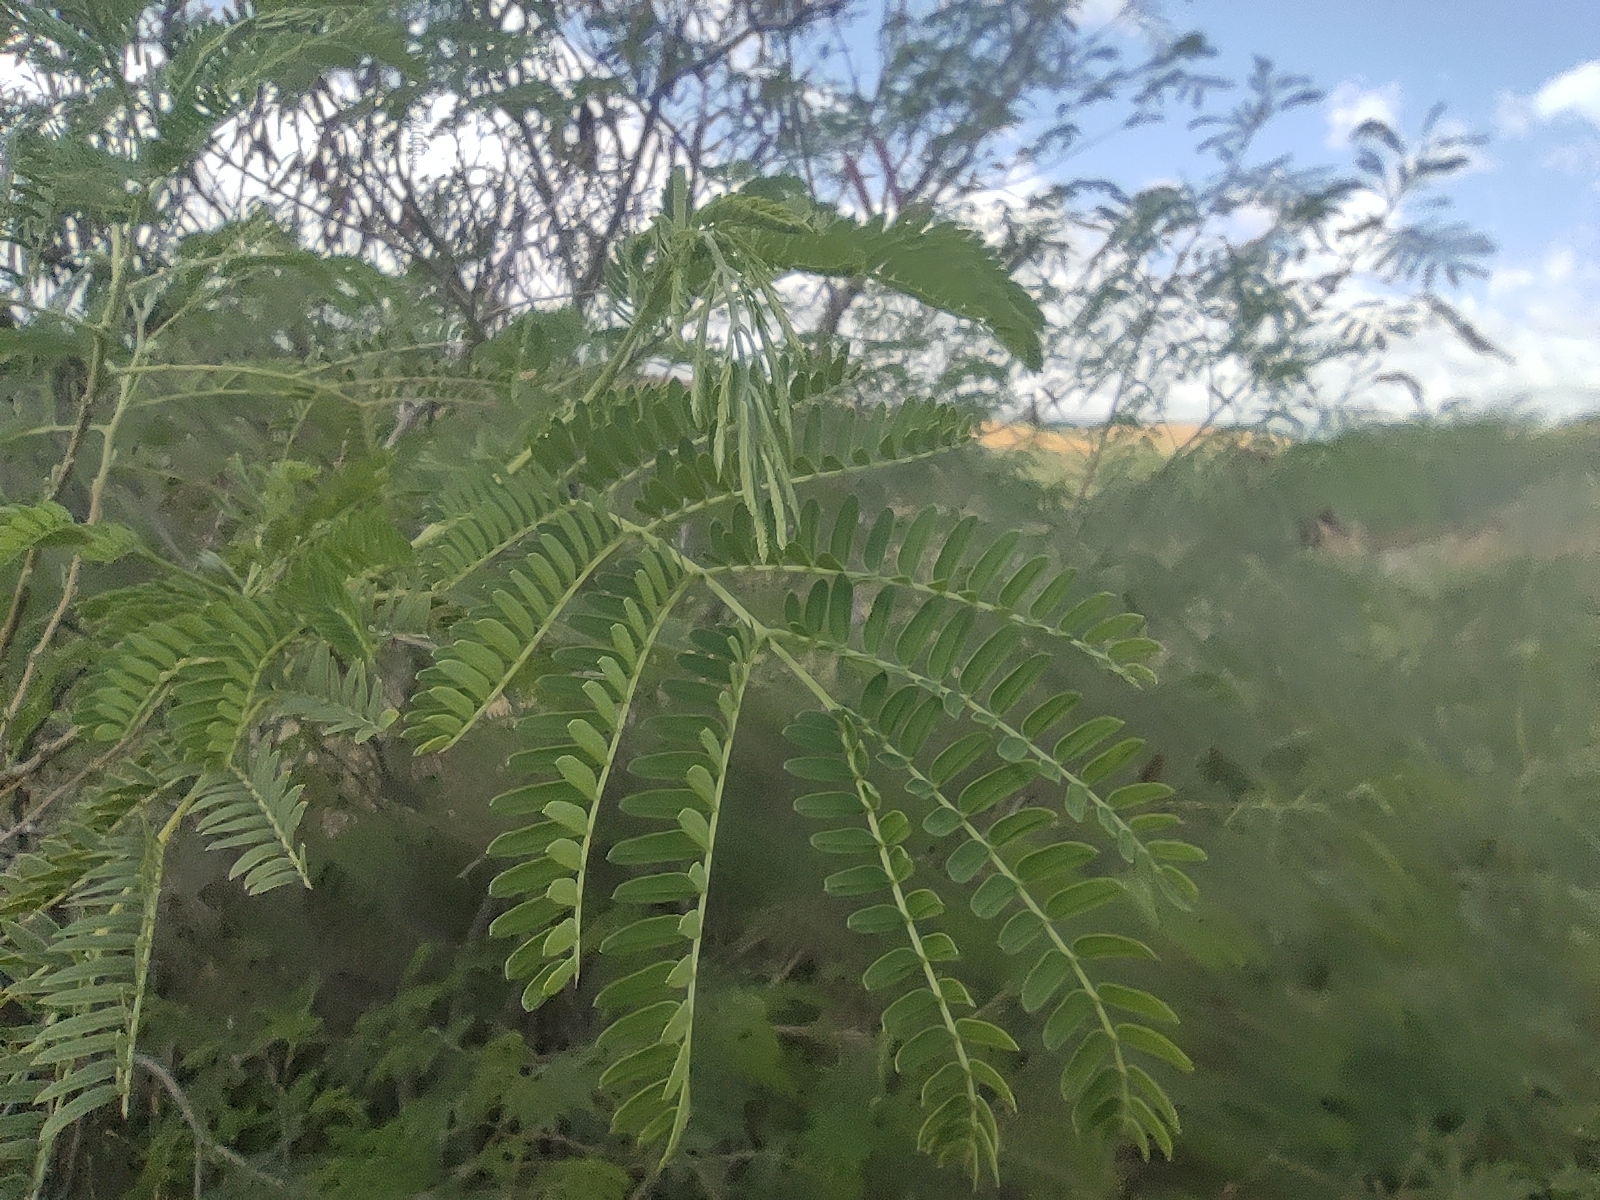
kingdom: Plantae
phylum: Tracheophyta
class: Magnoliopsida
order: Fabales
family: Fabaceae
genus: Leucaena
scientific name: Leucaena leucocephala
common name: White leadtree
